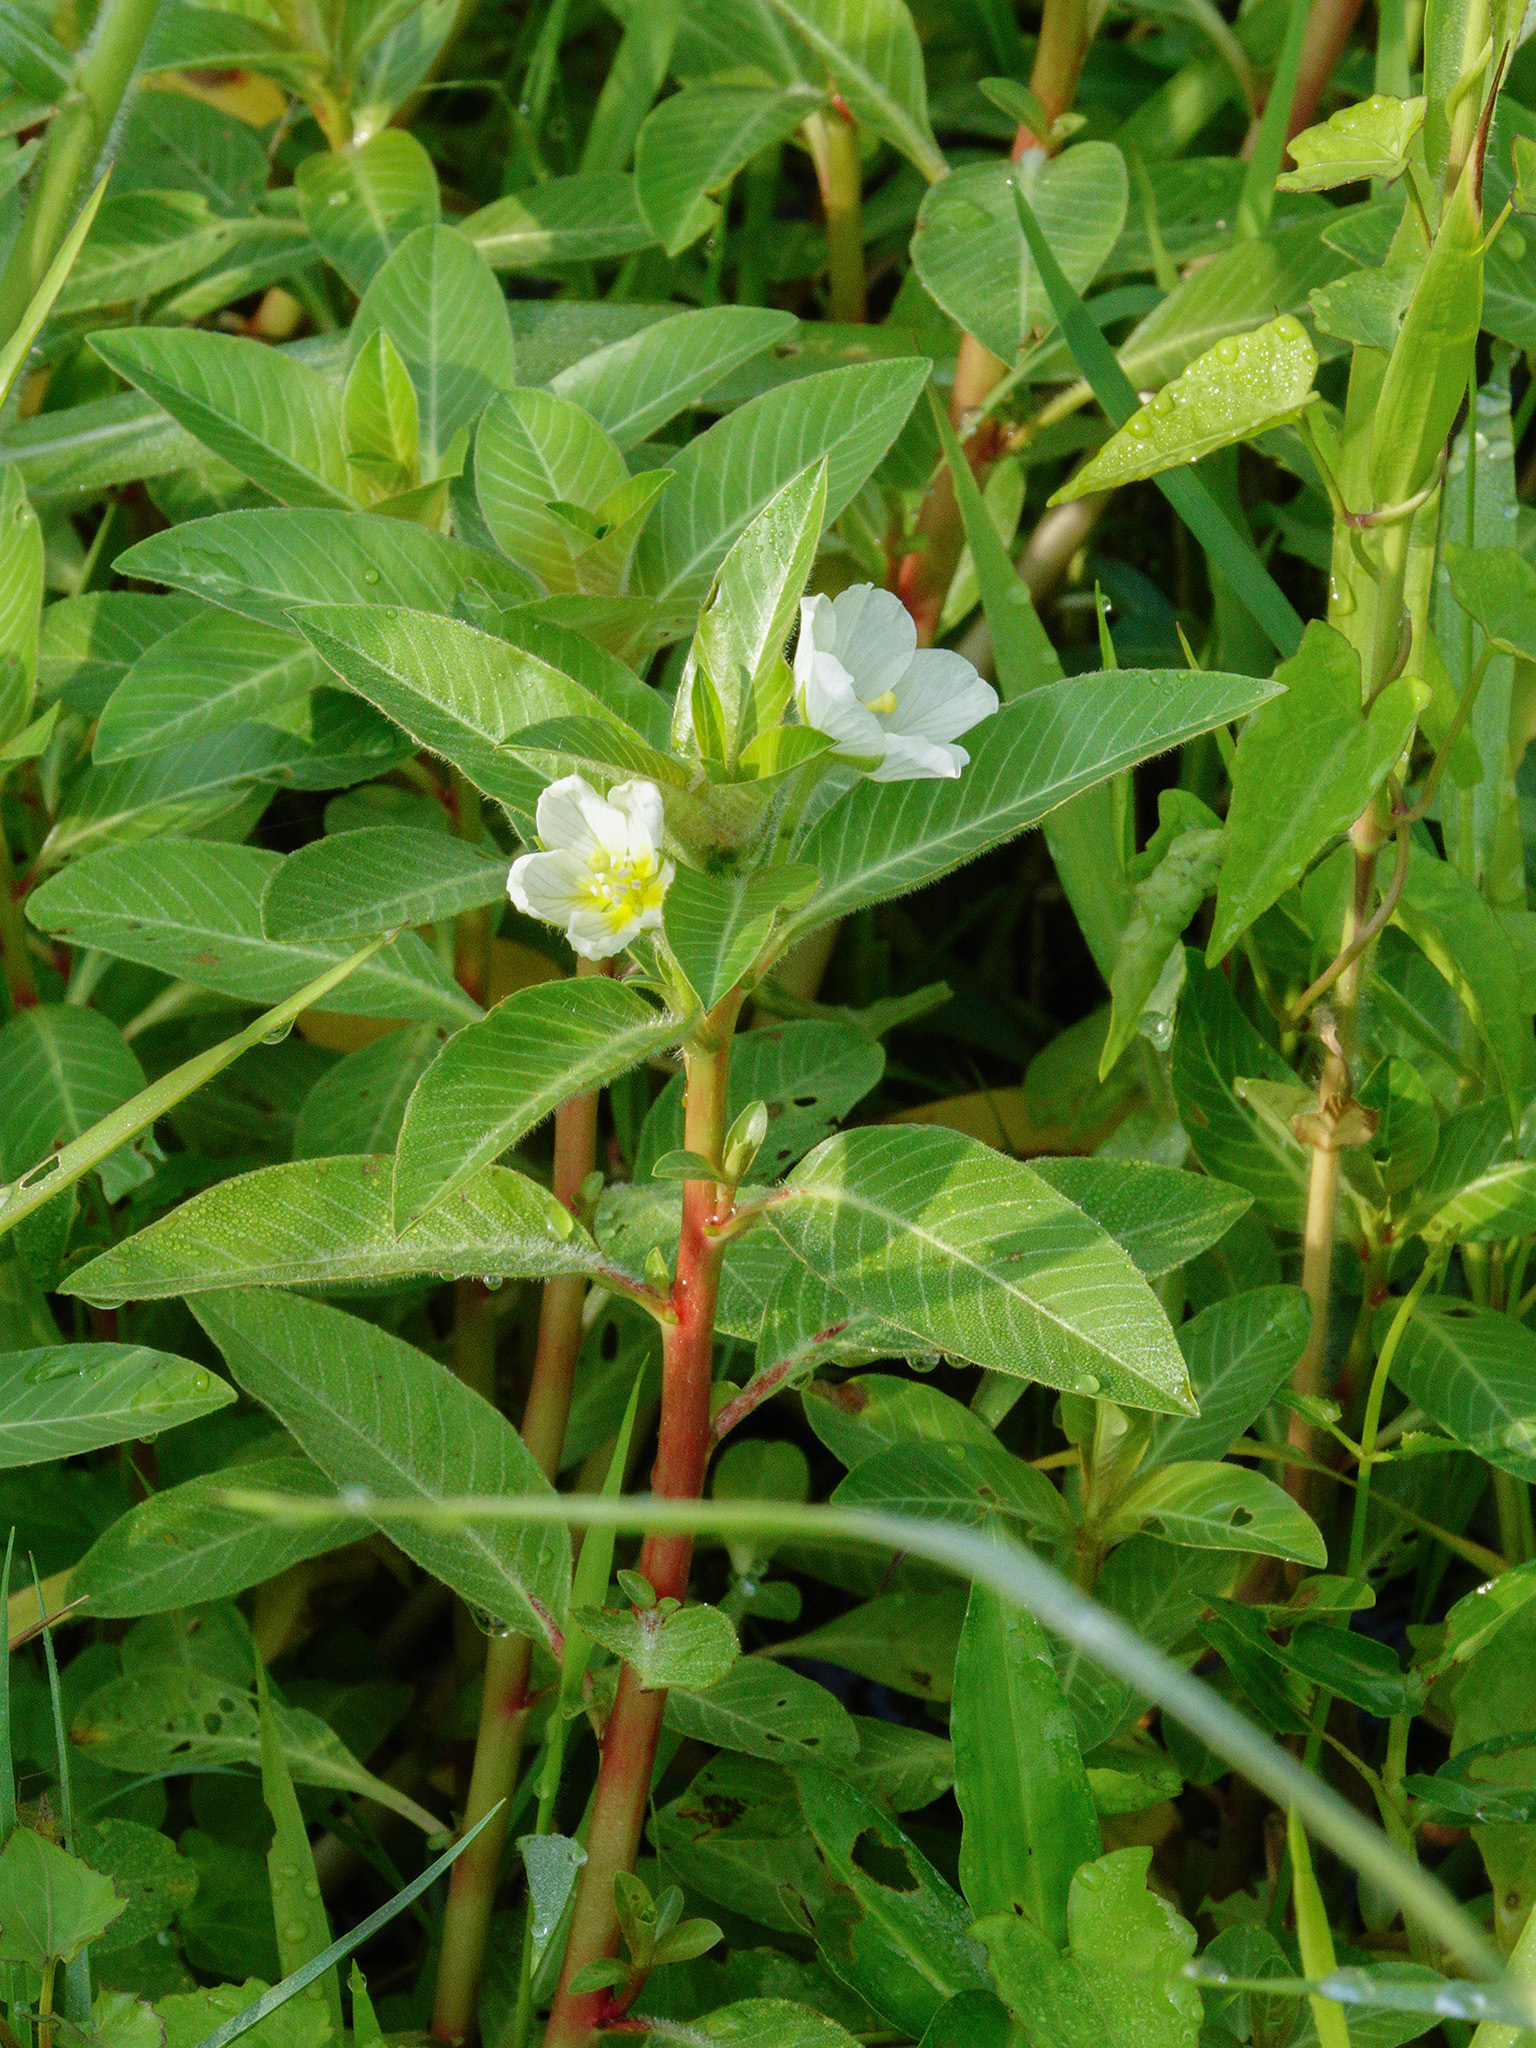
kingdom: Plantae
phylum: Tracheophyta
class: Magnoliopsida
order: Myrtales
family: Onagraceae
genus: Ludwigia
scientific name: Ludwigia adscendens
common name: Creeping water primrose
